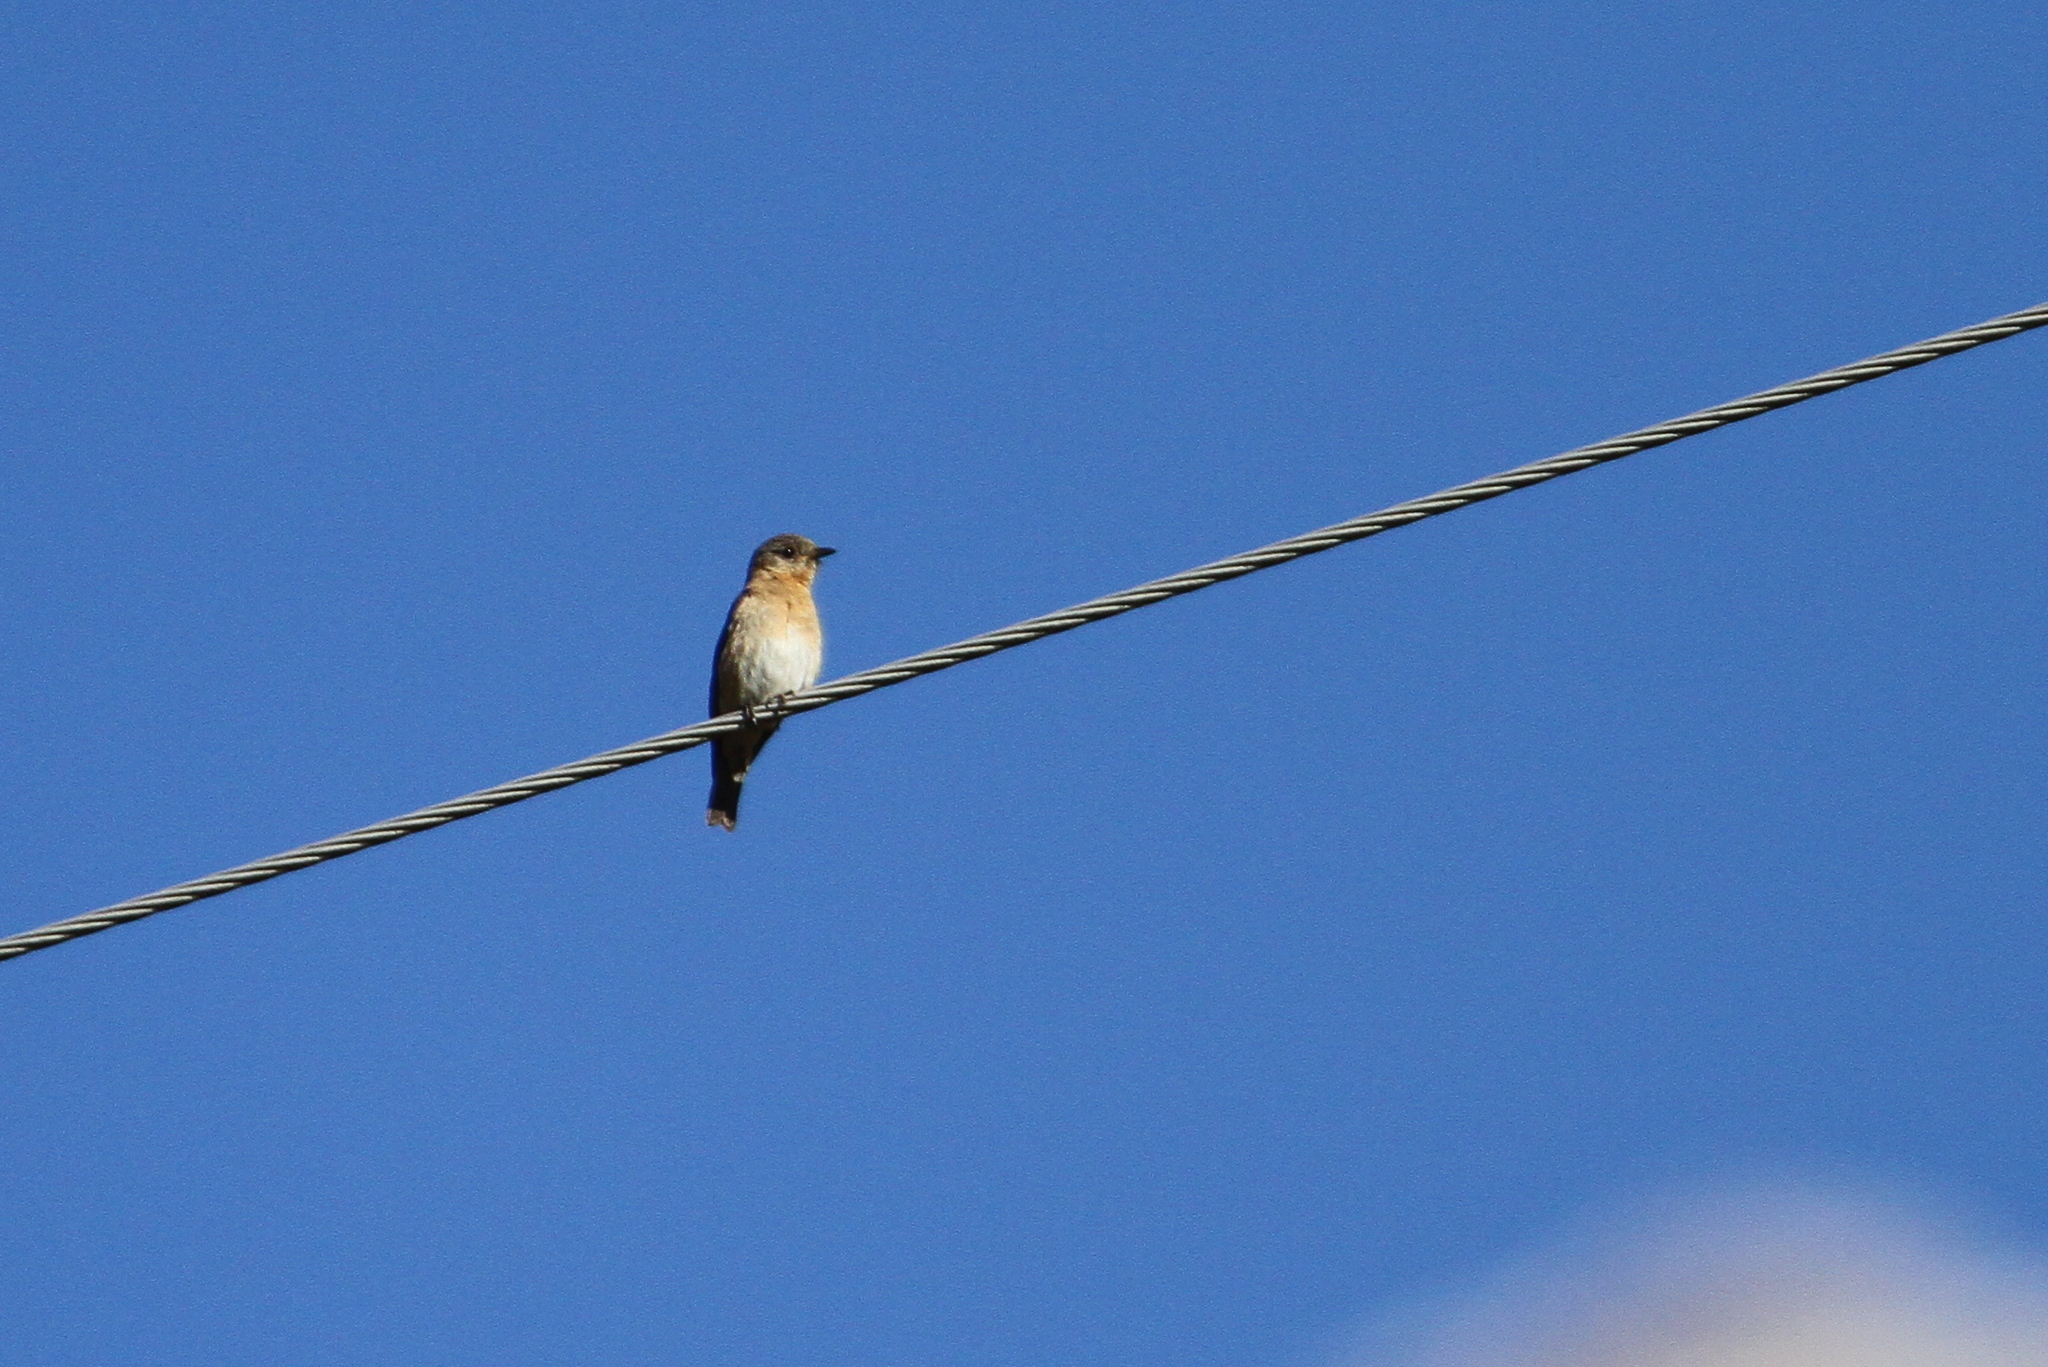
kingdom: Animalia
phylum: Chordata
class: Aves
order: Passeriformes
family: Turdidae
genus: Sialia
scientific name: Sialia sialis
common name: Eastern bluebird
